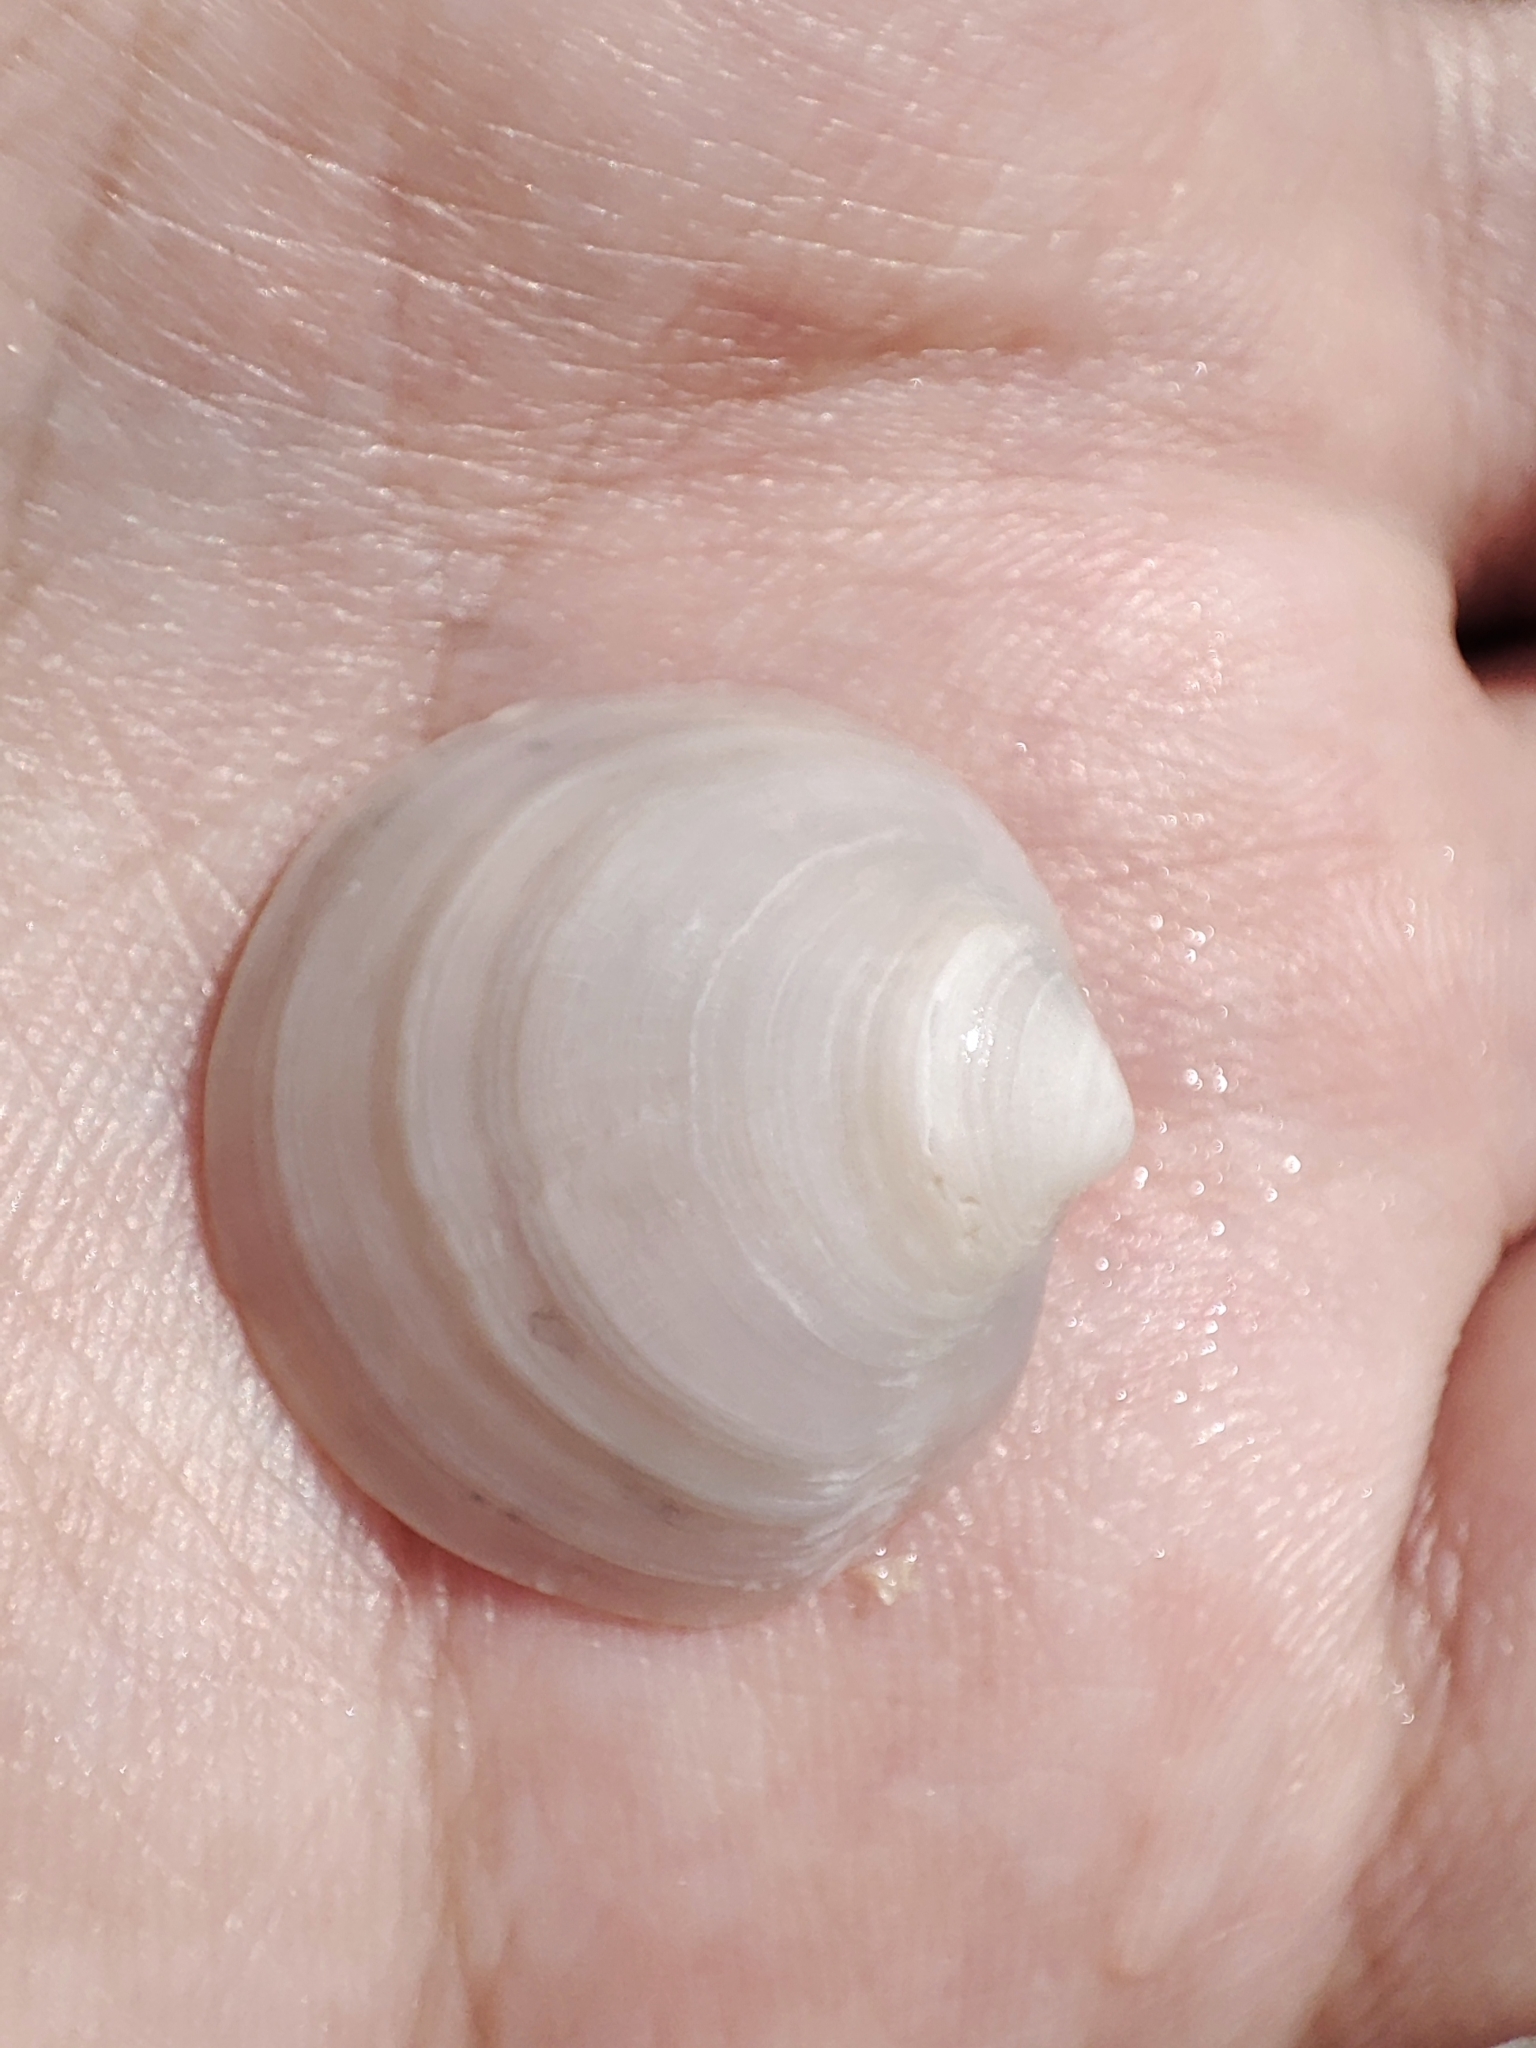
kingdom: Animalia
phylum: Mollusca
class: Bivalvia
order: Lucinida
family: Lucinidae
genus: Loripes
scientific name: Loripes orbiculatus
